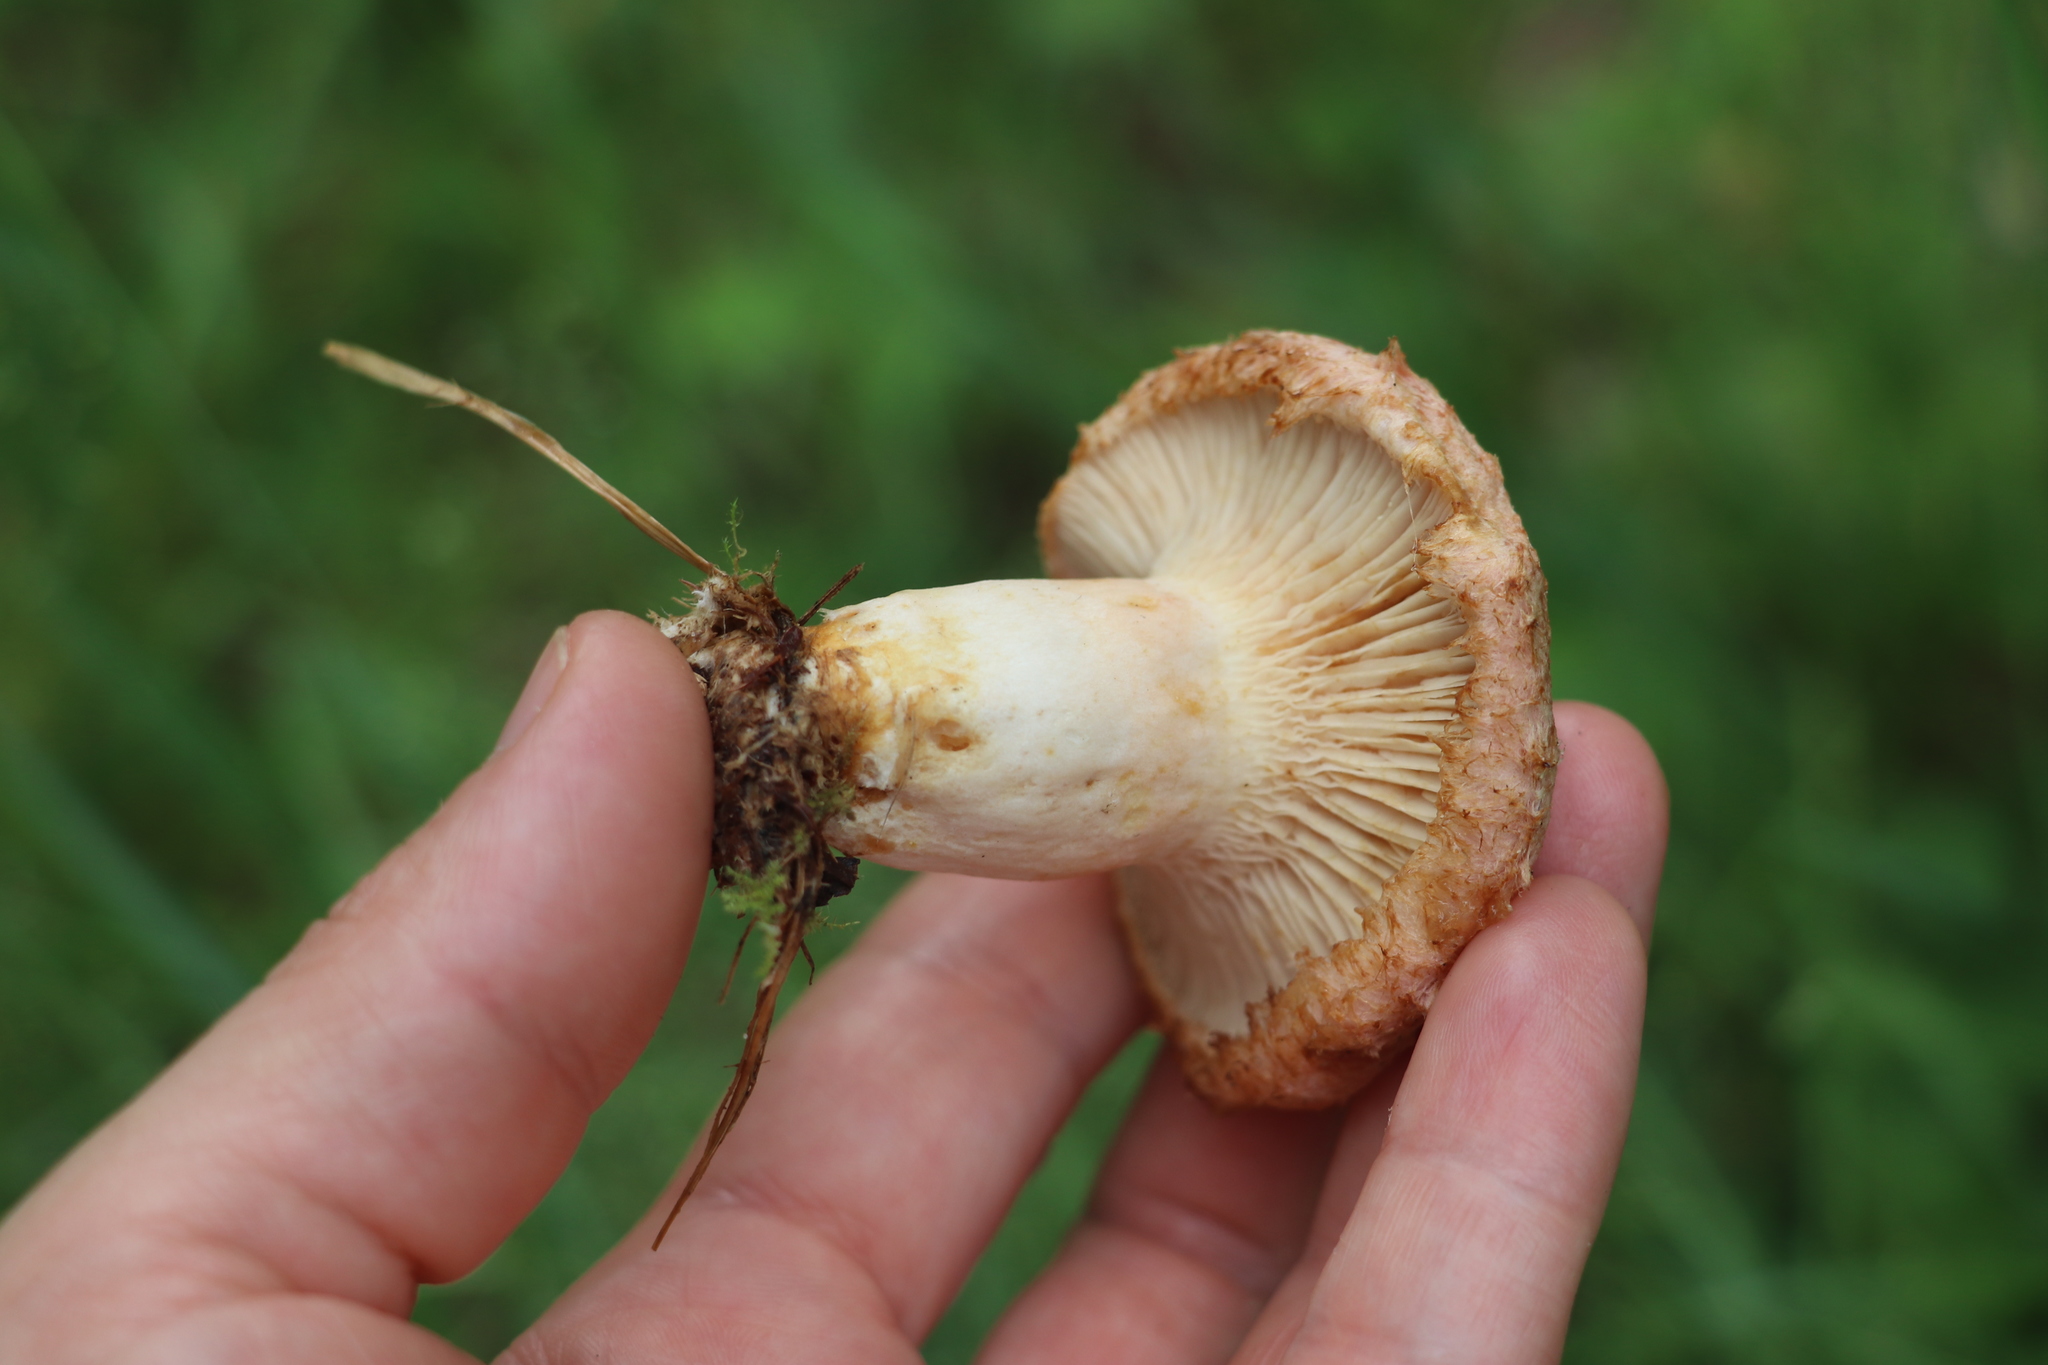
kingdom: Fungi
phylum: Basidiomycota
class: Agaricomycetes
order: Russulales
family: Russulaceae
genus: Lactarius
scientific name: Lactarius torminosus
